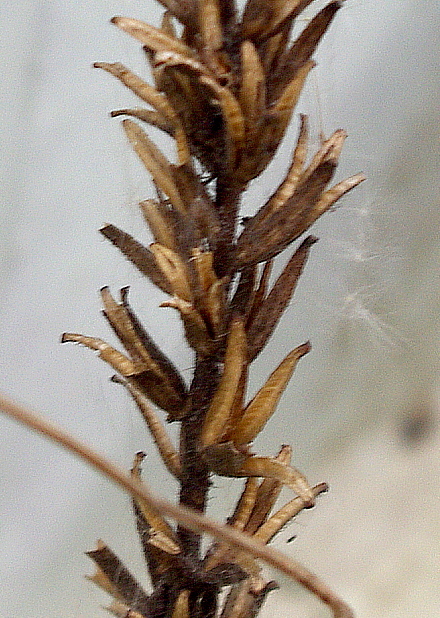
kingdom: Plantae
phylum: Tracheophyta
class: Magnoliopsida
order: Myrtales
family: Onagraceae
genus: Oenothera
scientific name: Oenothera
